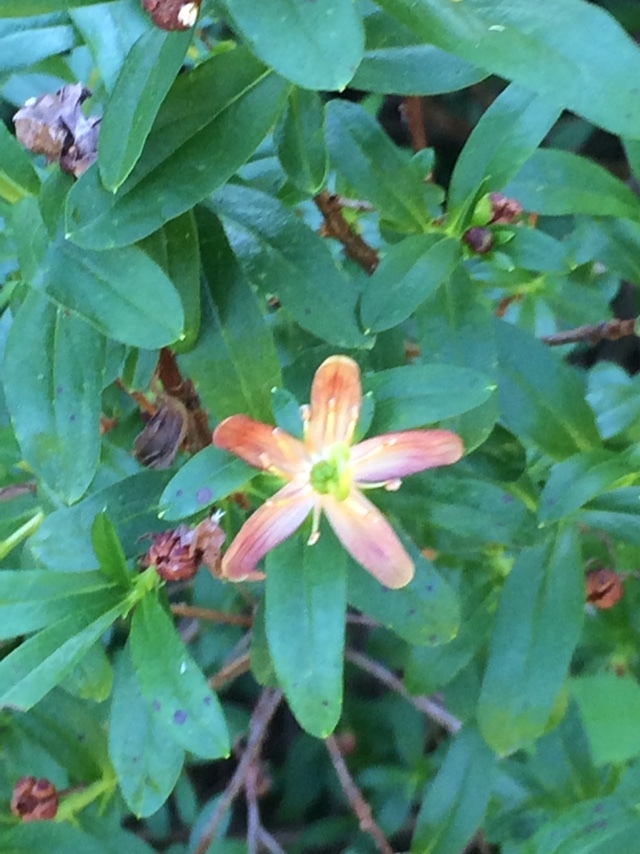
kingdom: Plantae
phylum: Tracheophyta
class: Magnoliopsida
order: Ericales
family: Ericaceae
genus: Elliottia
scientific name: Elliottia pyroliflora
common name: Copperbush
